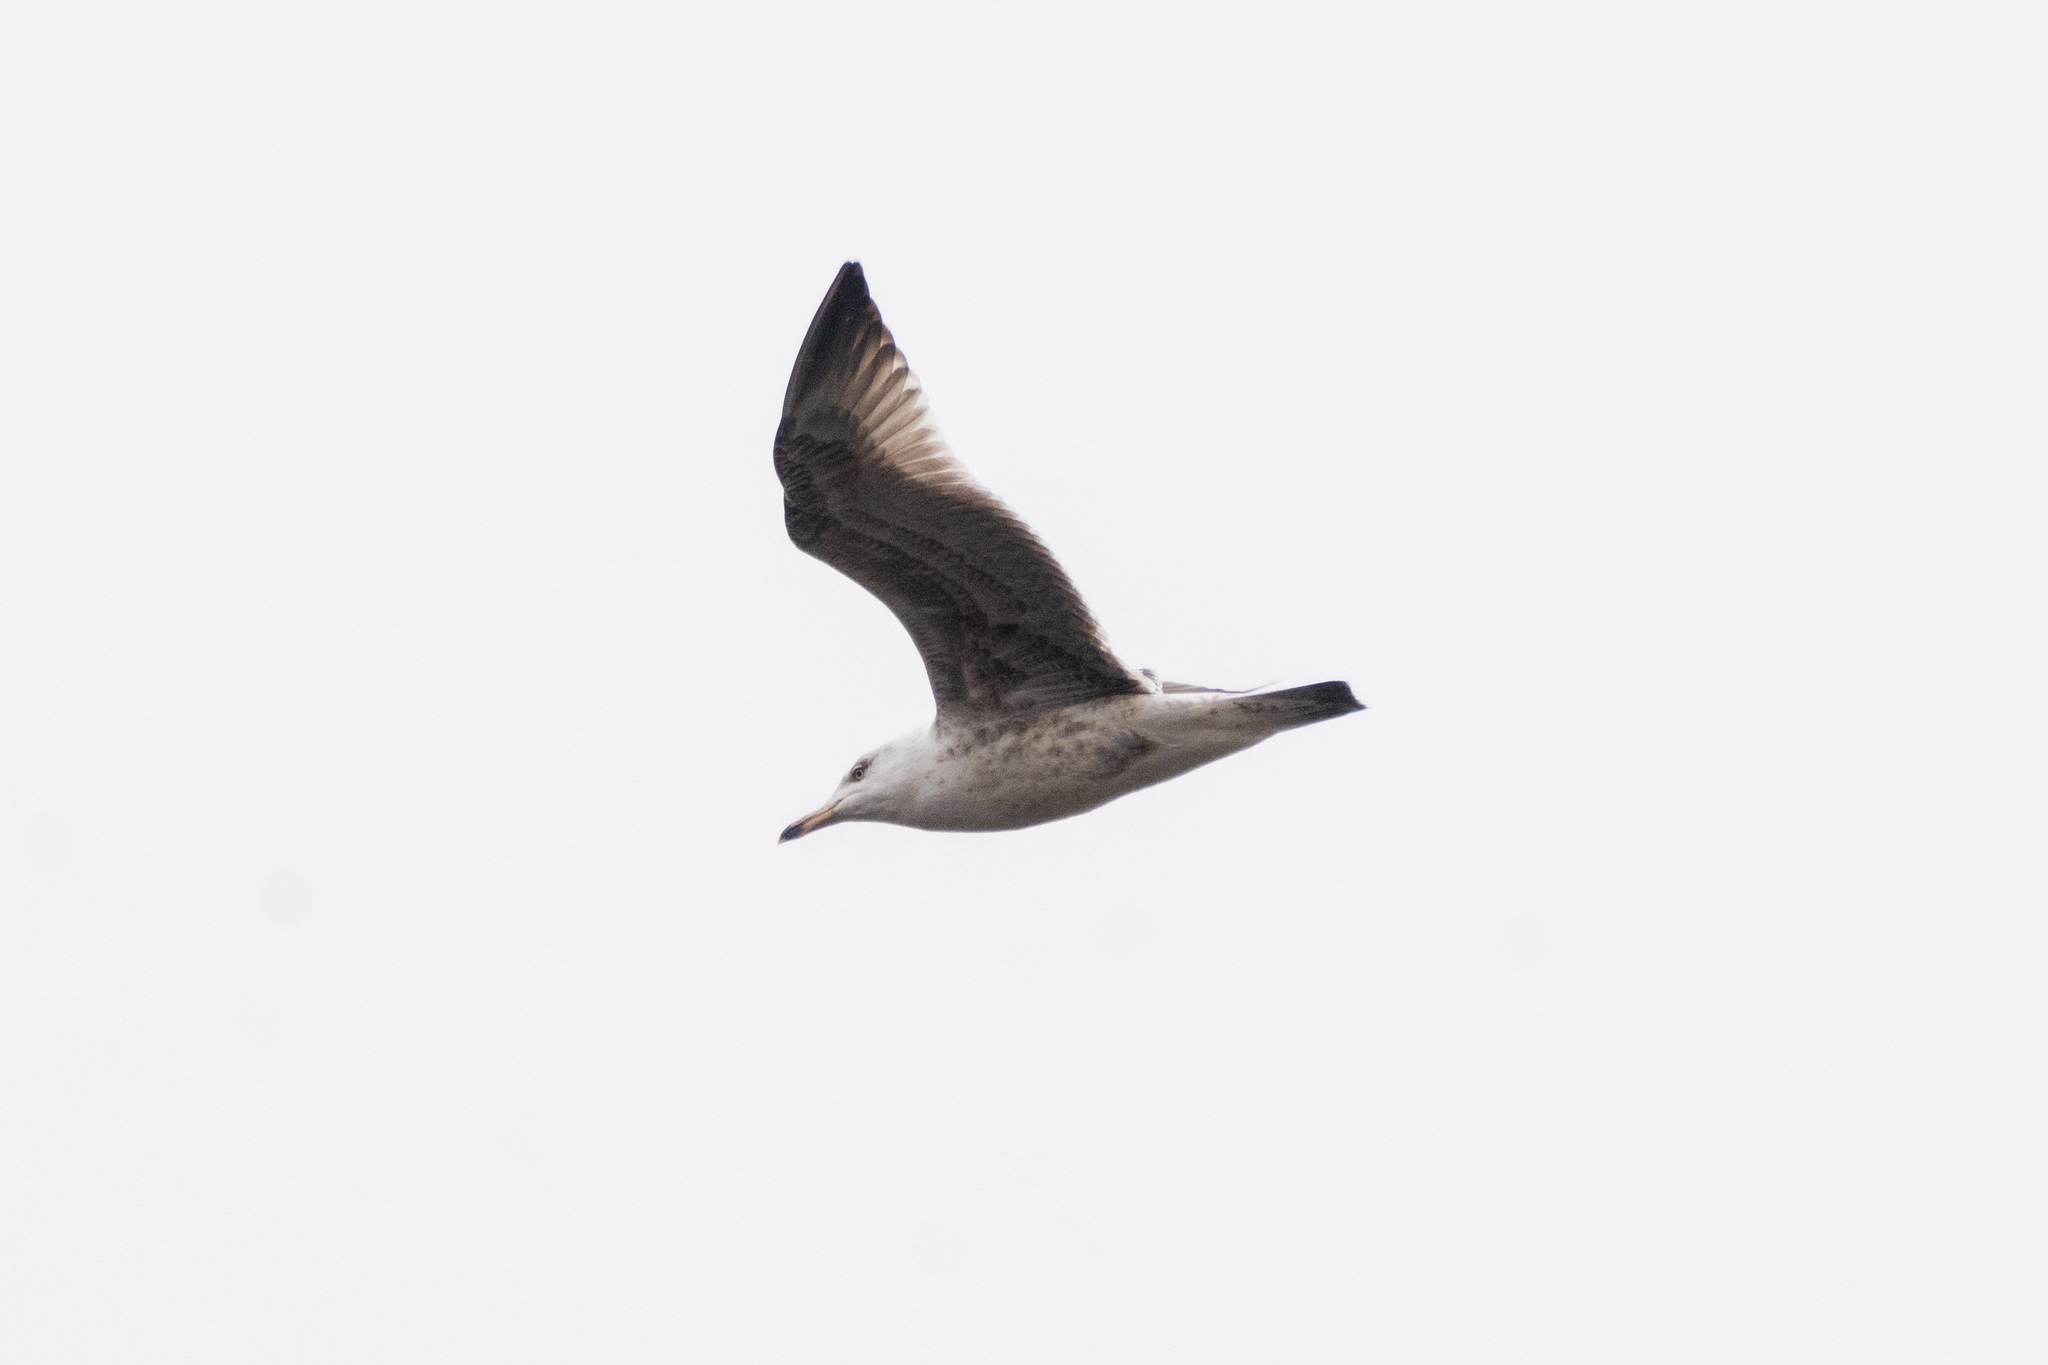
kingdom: Animalia
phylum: Chordata
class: Aves
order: Charadriiformes
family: Laridae
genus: Larus
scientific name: Larus cachinnans
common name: Caspian gull
